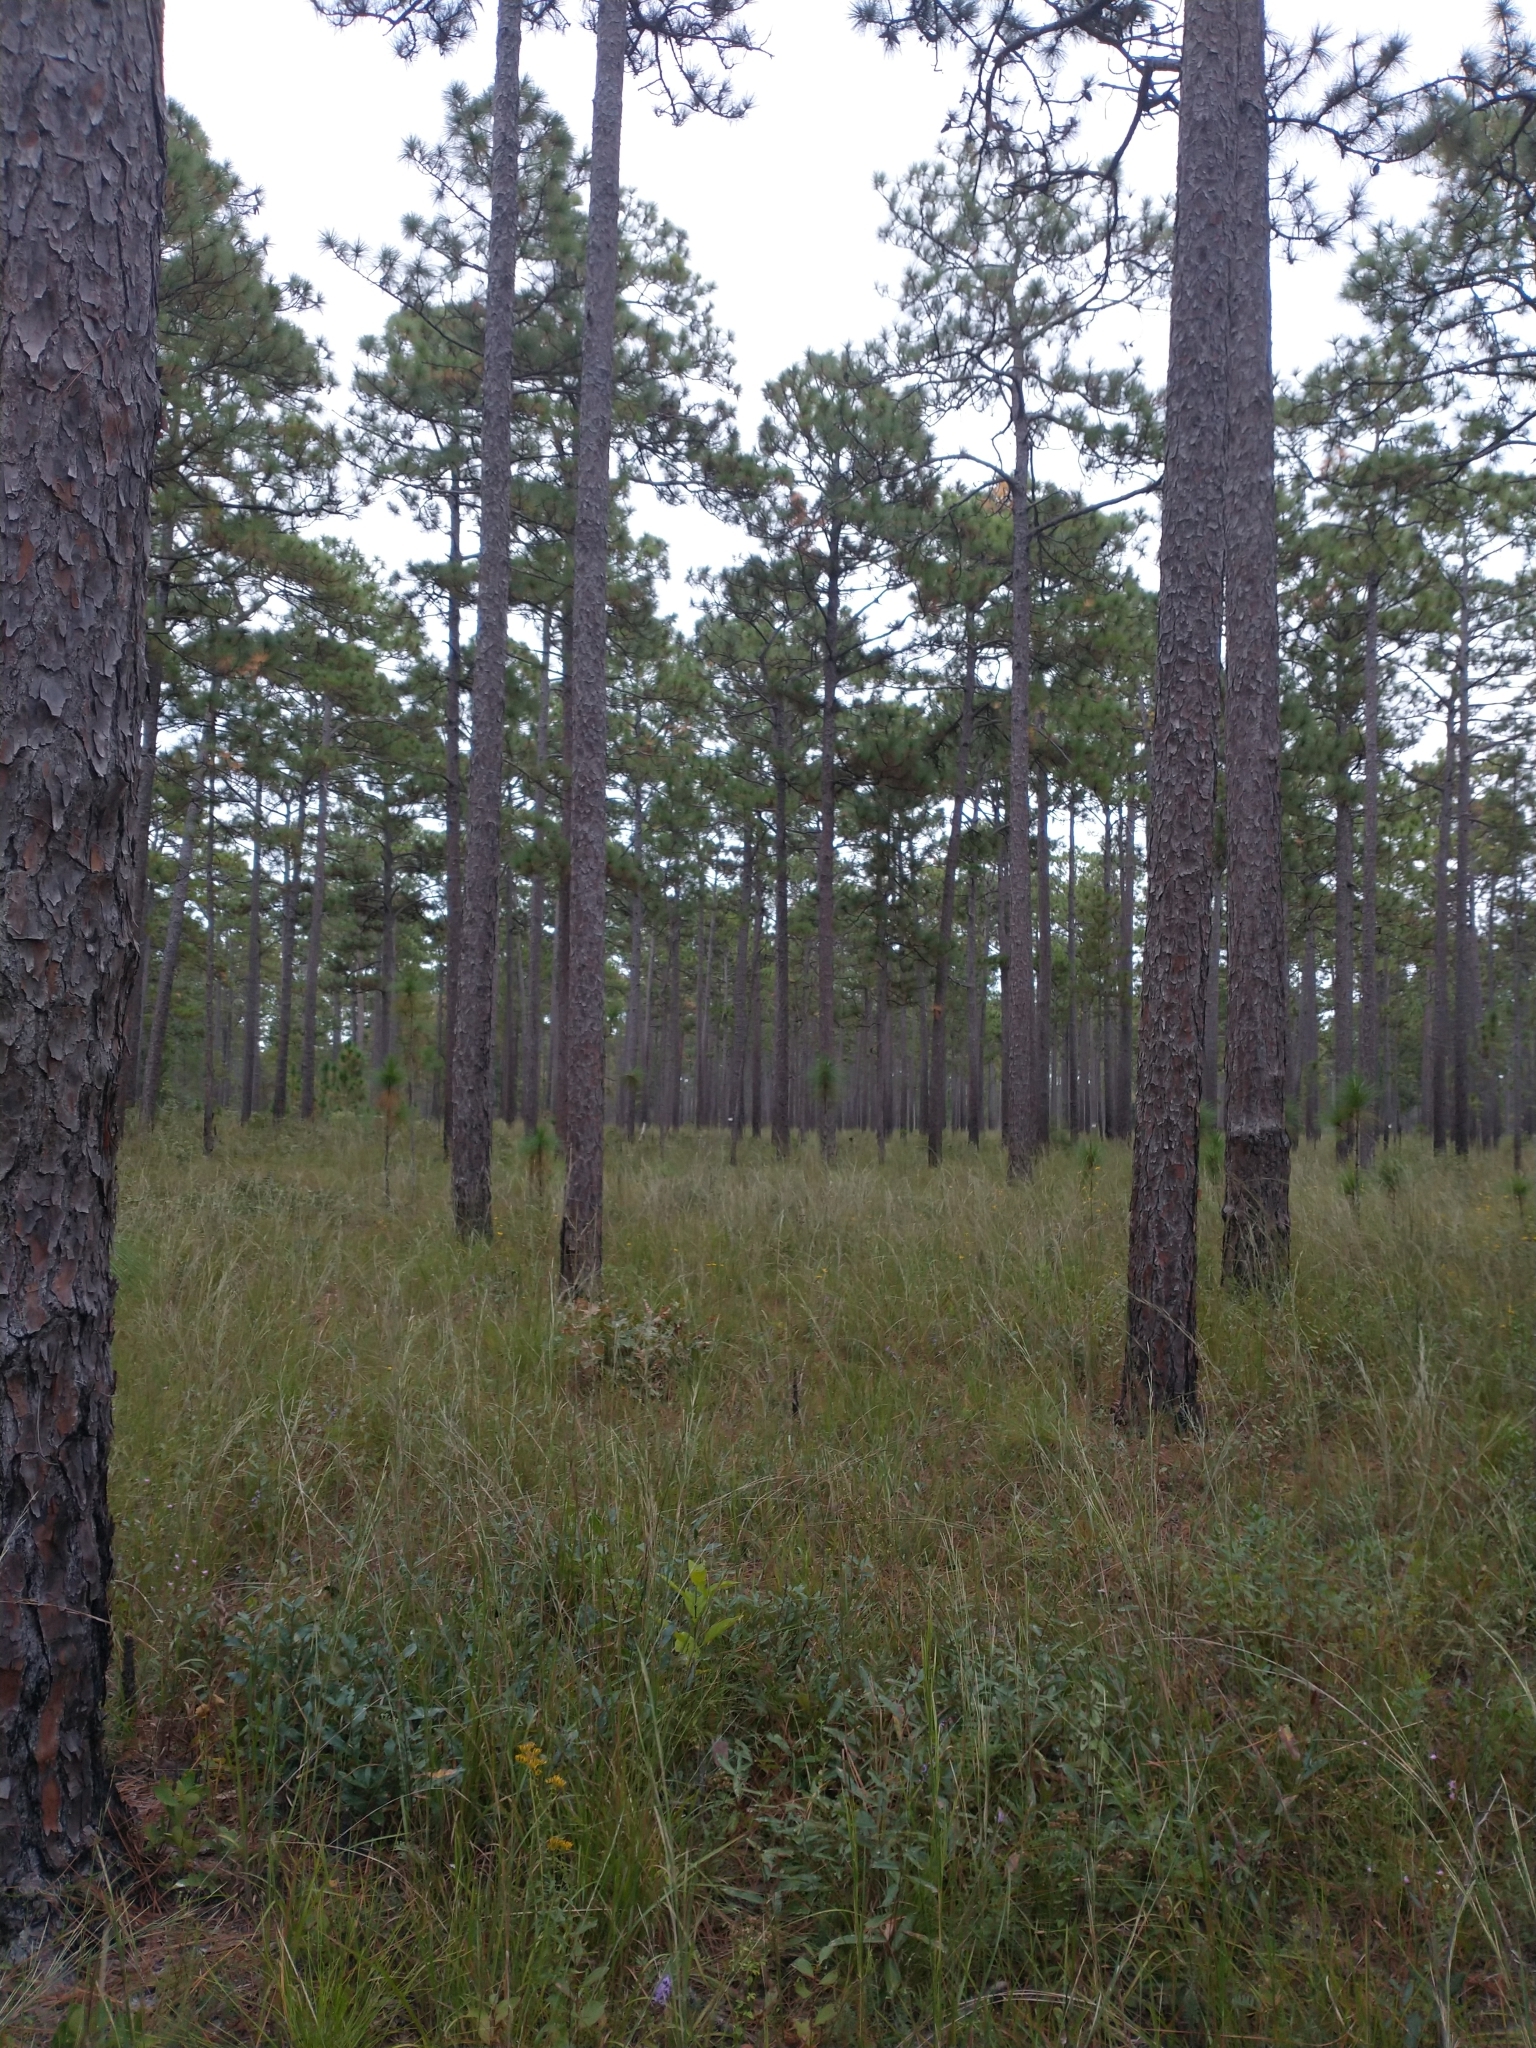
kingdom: Plantae
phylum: Tracheophyta
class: Pinopsida
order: Pinales
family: Pinaceae
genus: Pinus
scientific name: Pinus palustris
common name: Longleaf pine
